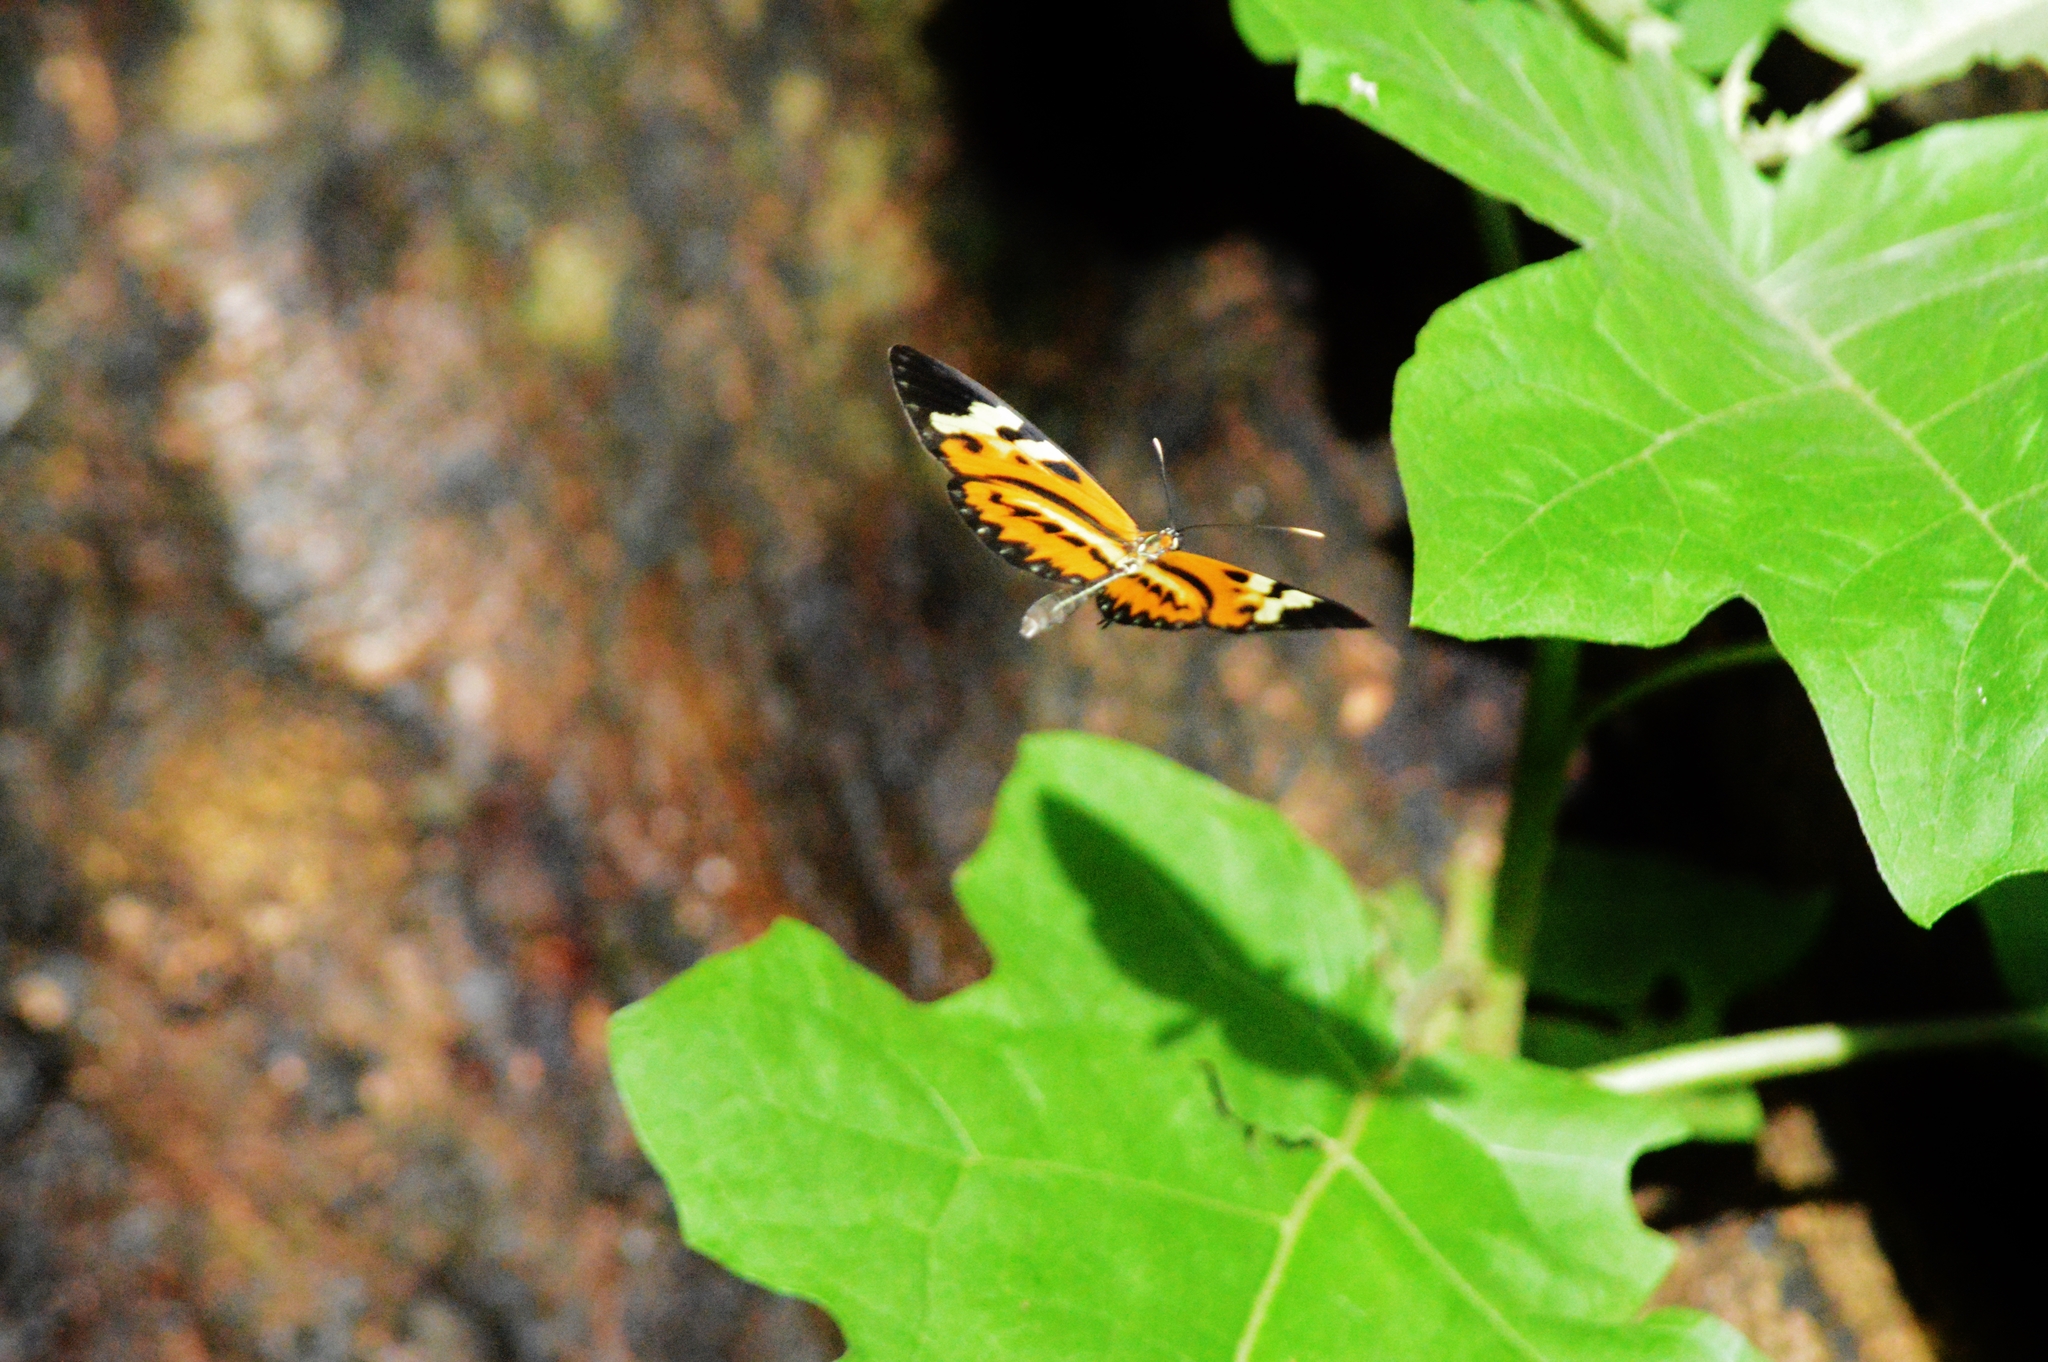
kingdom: Animalia
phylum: Arthropoda
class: Insecta
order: Lepidoptera
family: Nymphalidae
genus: Mechanitis
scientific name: Mechanitis polymnia
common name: Disturbed tigerwing
